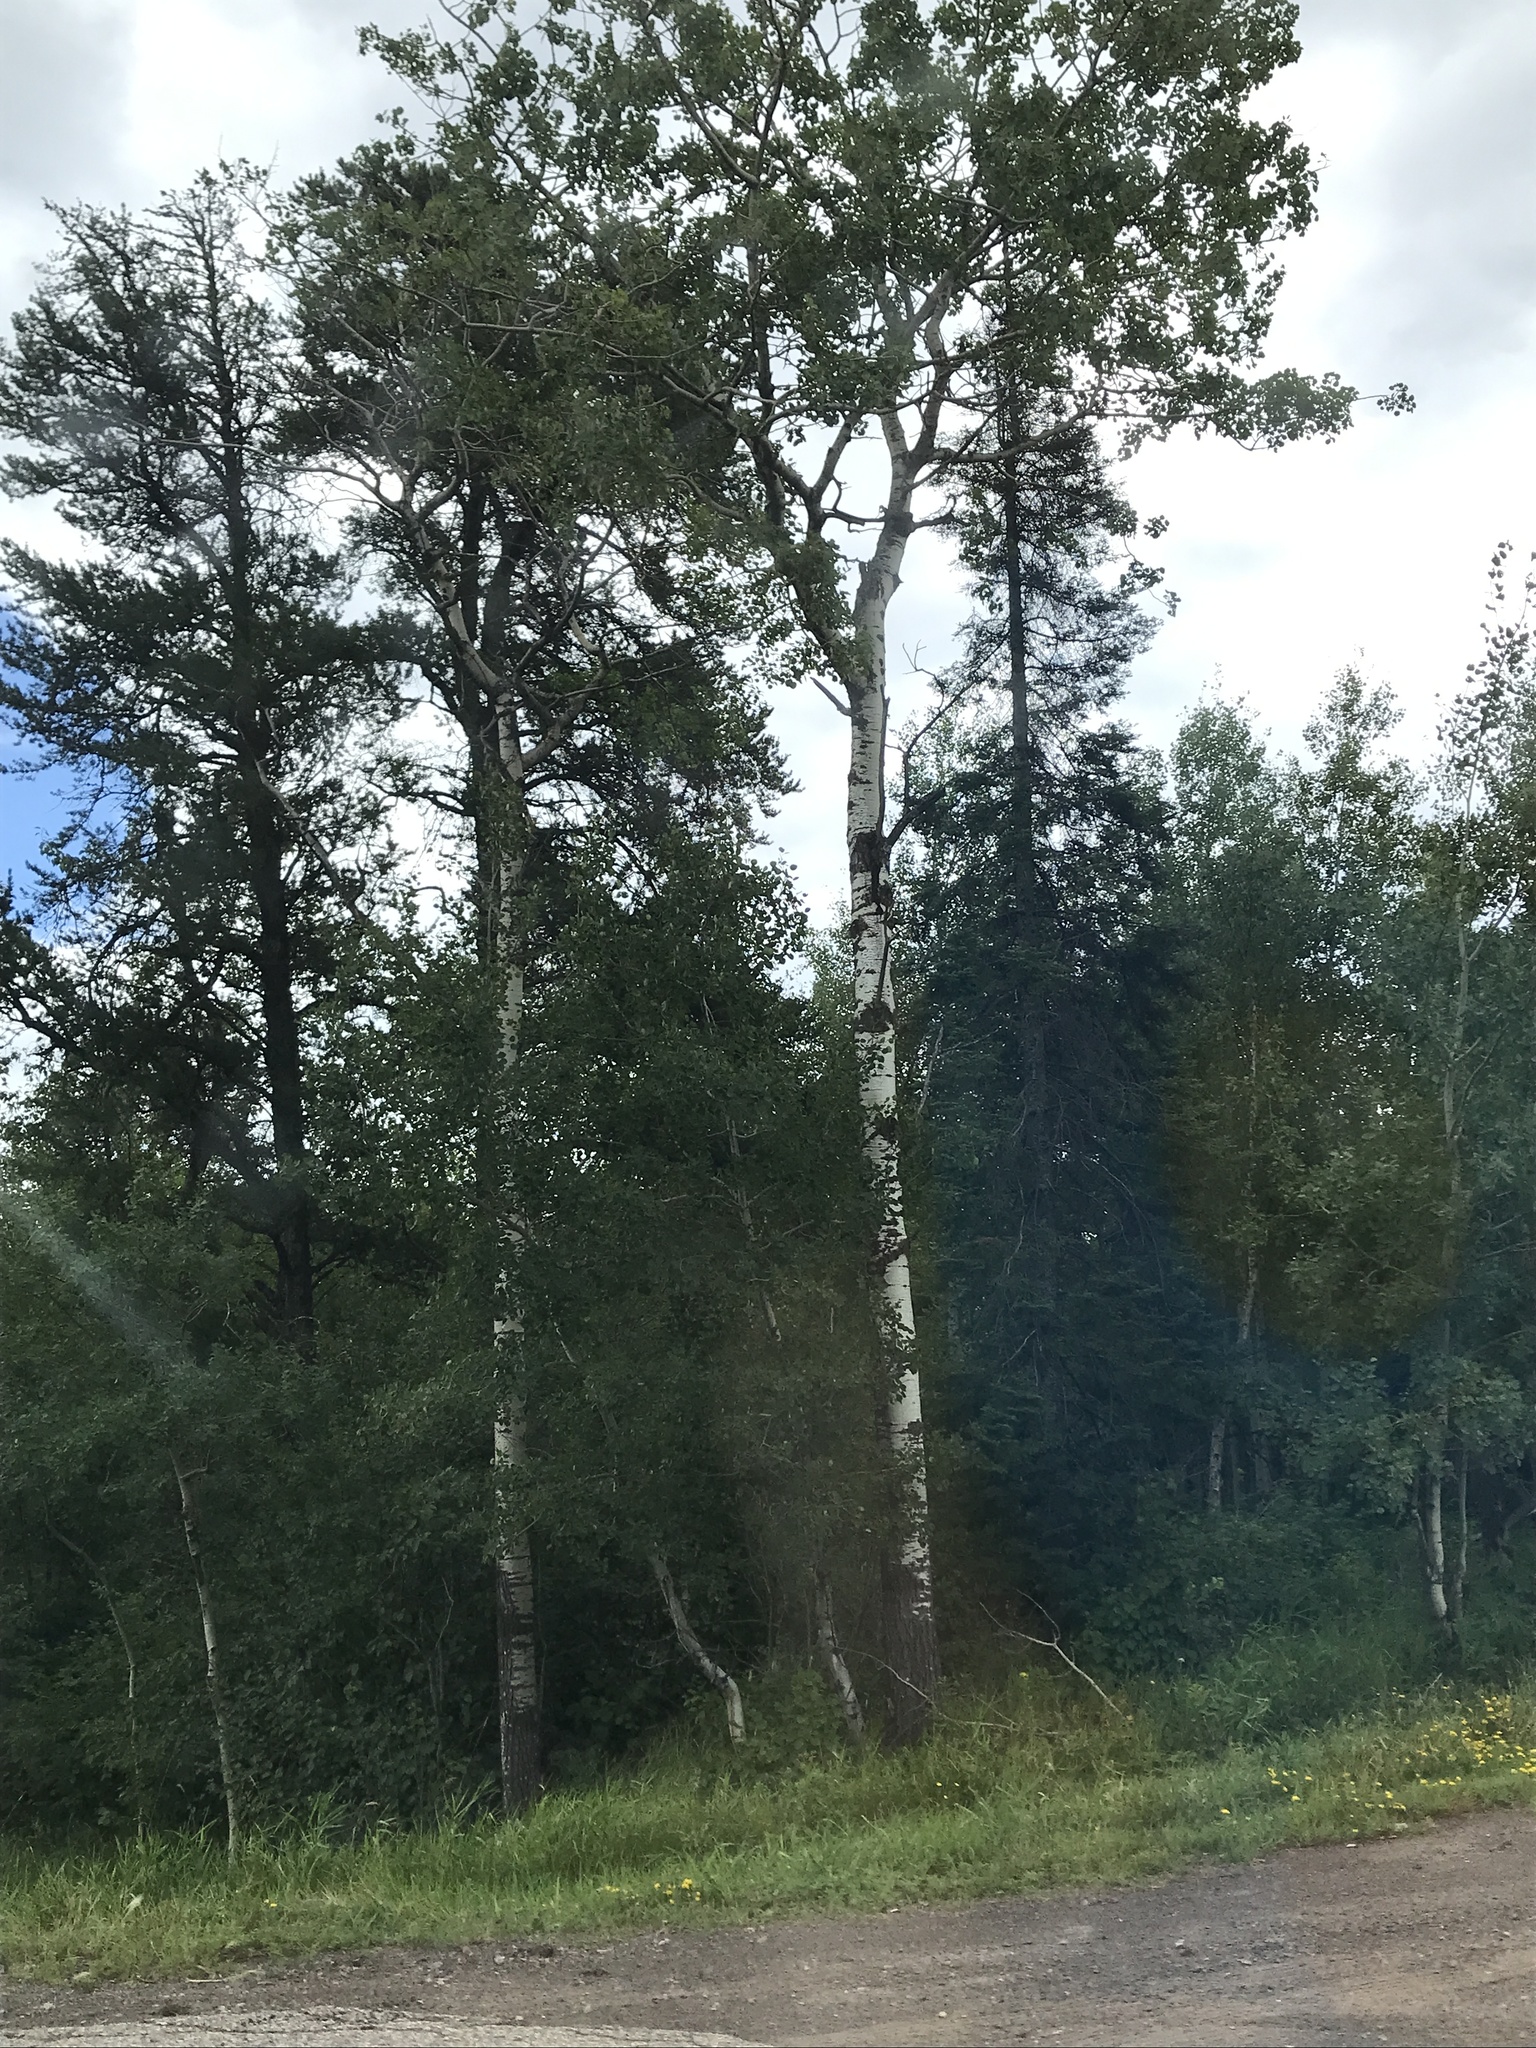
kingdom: Plantae
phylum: Tracheophyta
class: Magnoliopsida
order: Malpighiales
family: Salicaceae
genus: Populus
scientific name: Populus tremuloides
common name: Quaking aspen
